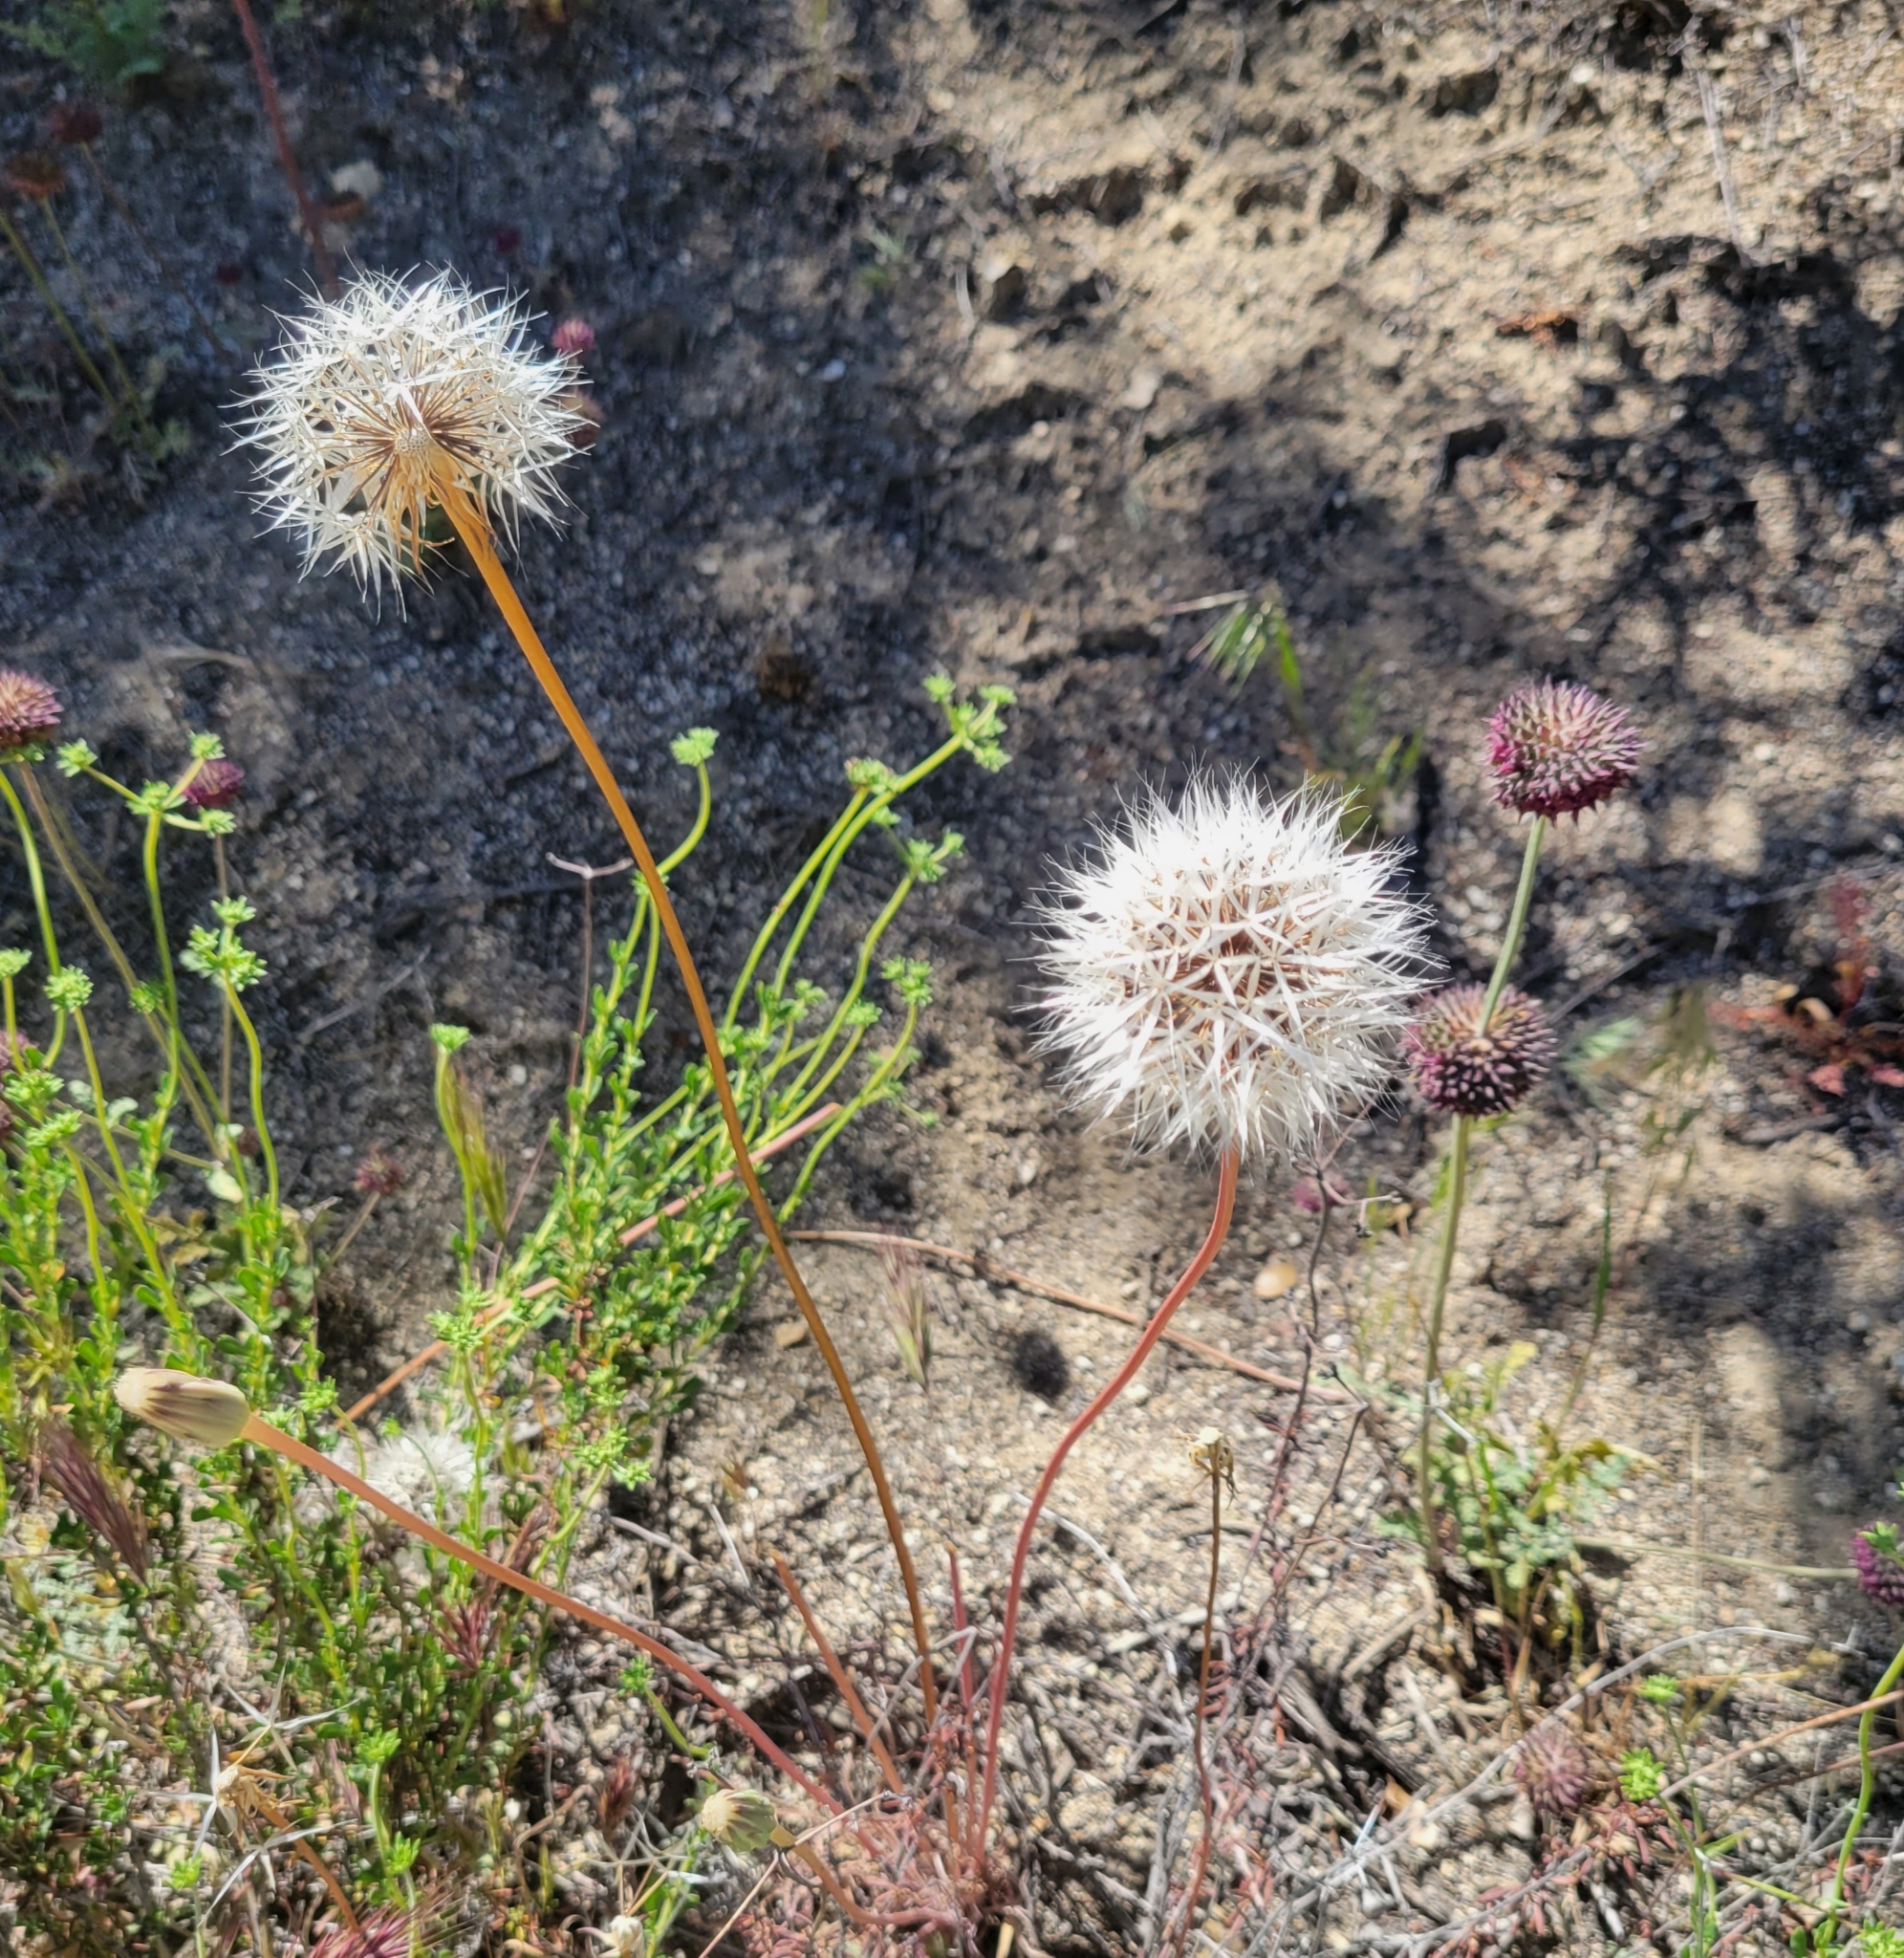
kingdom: Plantae
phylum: Tracheophyta
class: Magnoliopsida
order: Asterales
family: Asteraceae
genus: Microseris
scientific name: Microseris lindleyi
